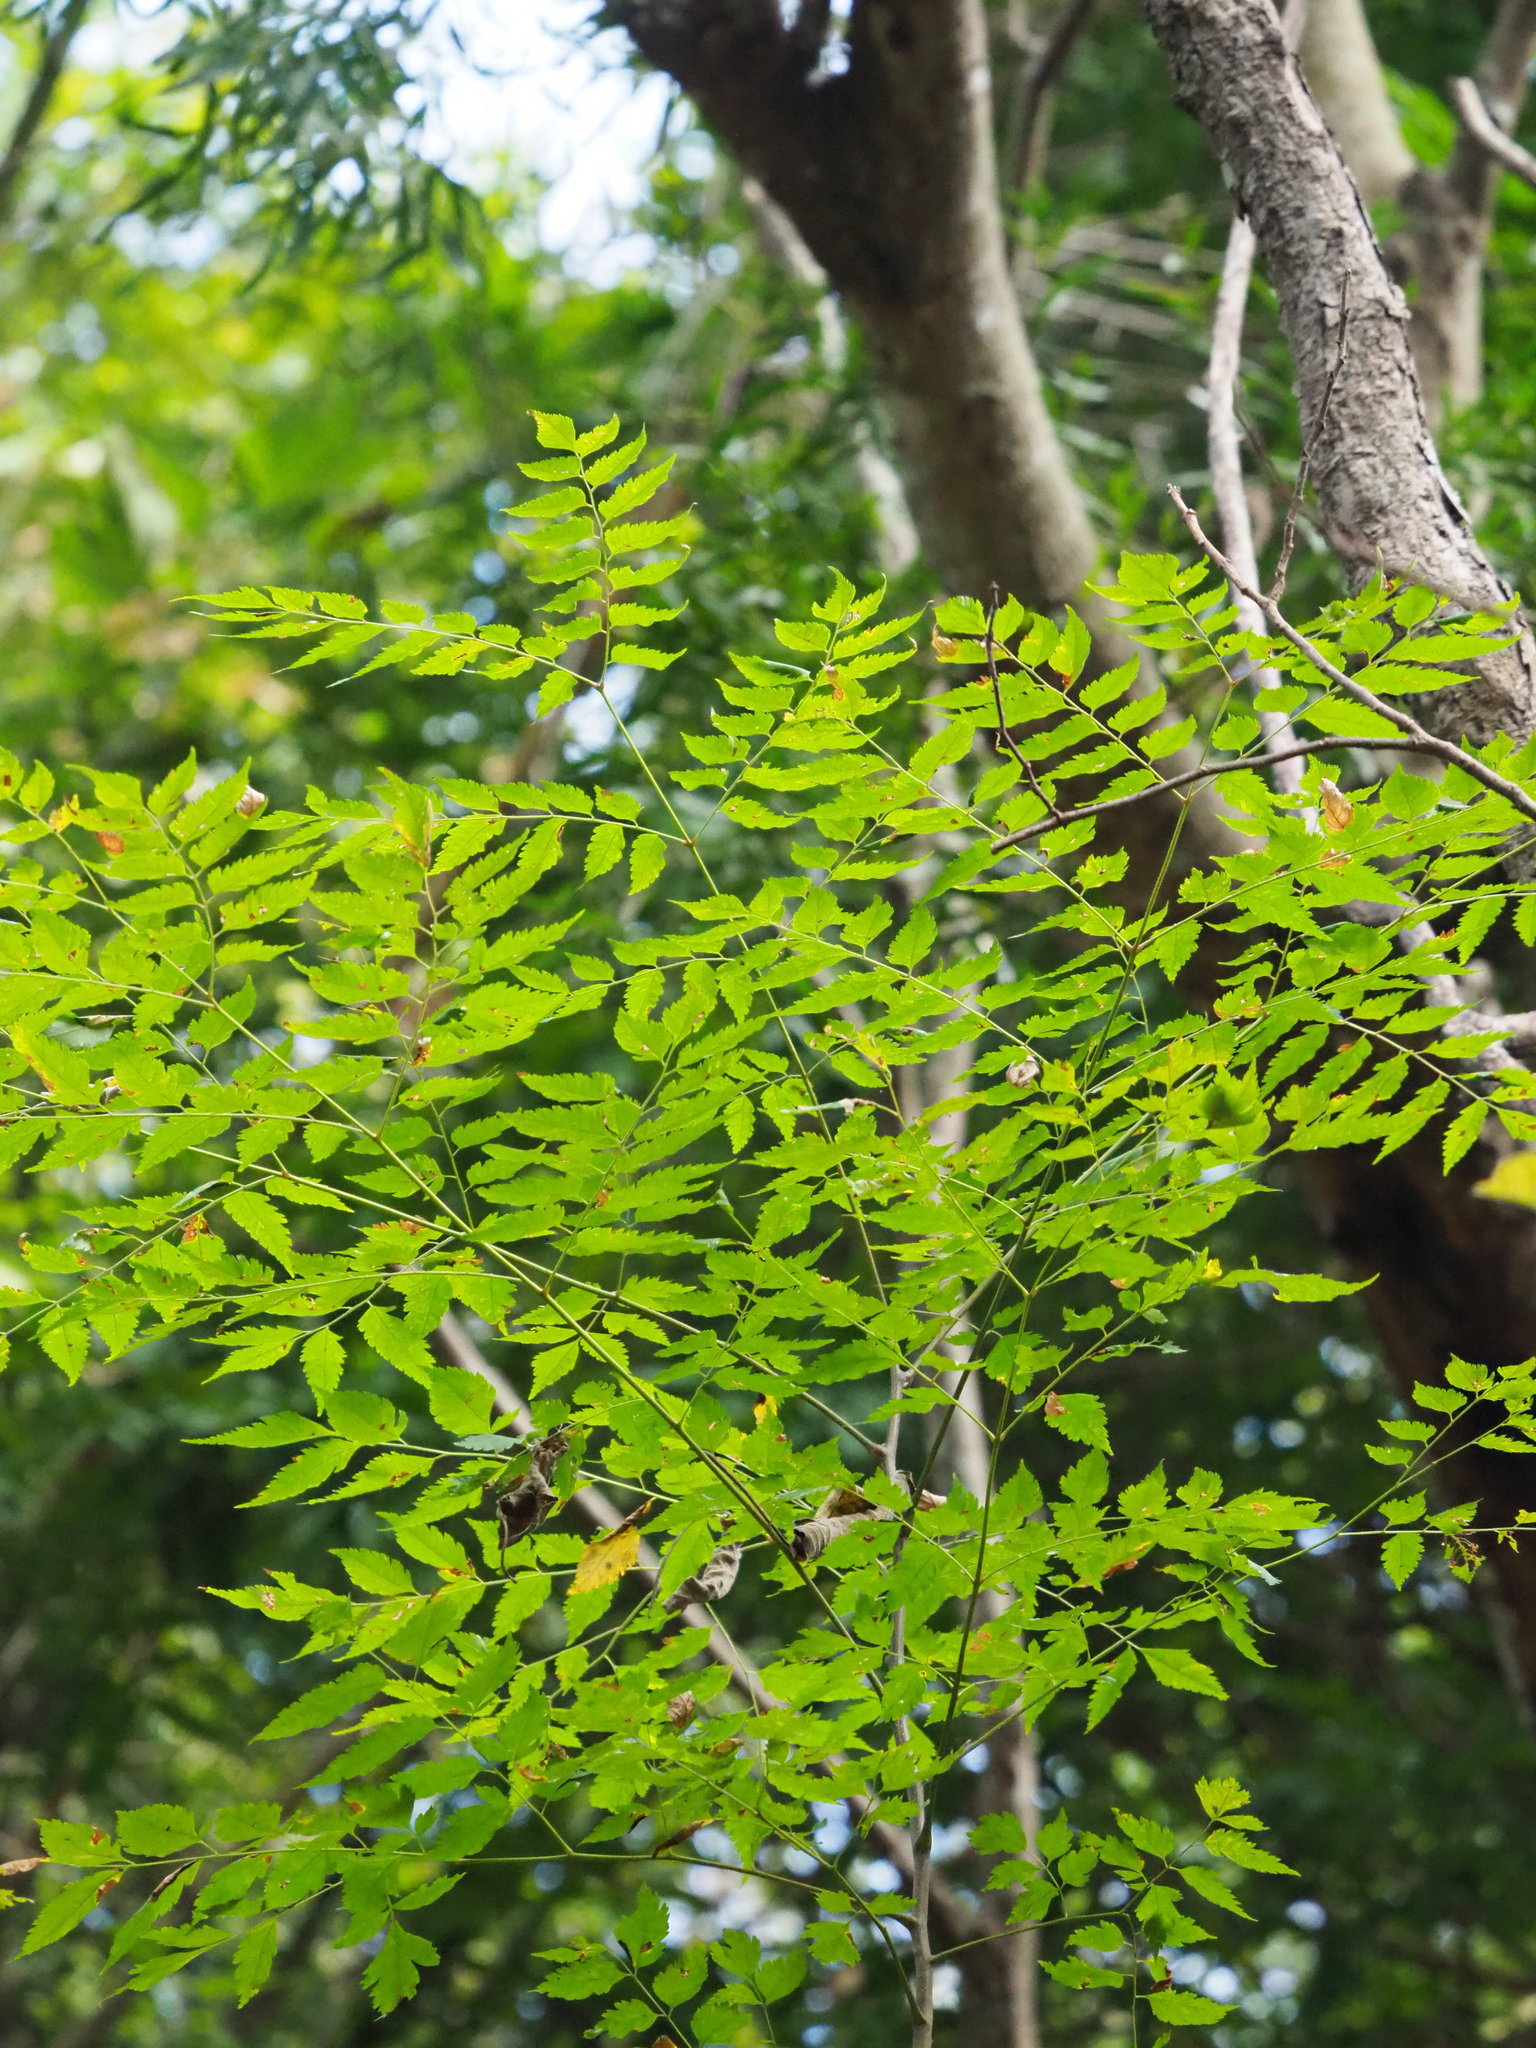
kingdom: Plantae
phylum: Tracheophyta
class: Magnoliopsida
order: Sapindales
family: Sapindaceae
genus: Koelreuteria
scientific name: Koelreuteria elegans
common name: Chinese flame tree
